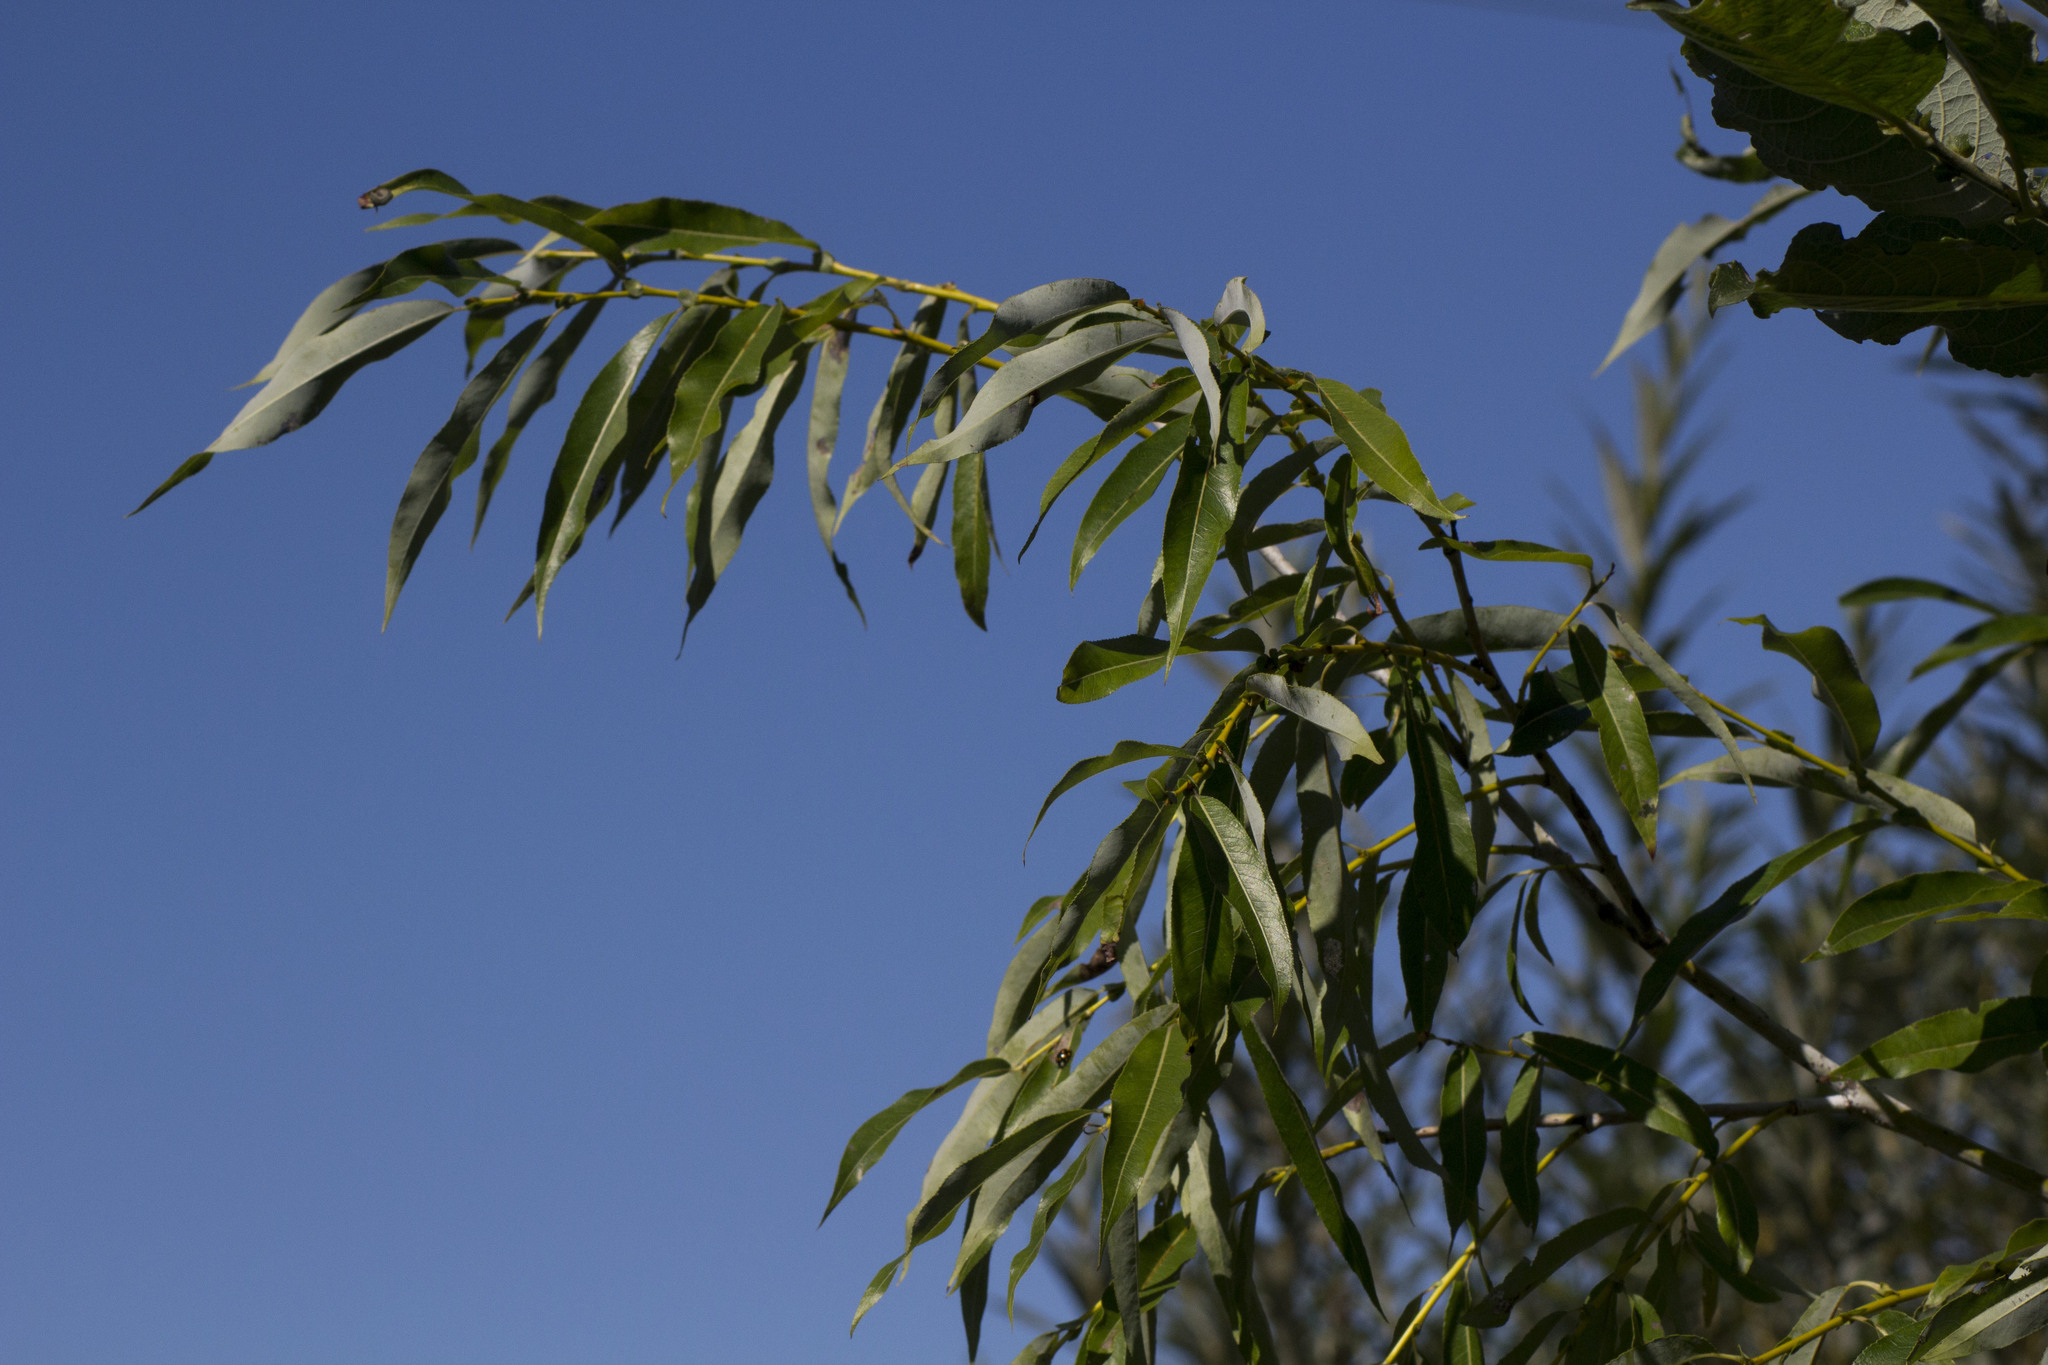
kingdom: Plantae
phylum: Tracheophyta
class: Magnoliopsida
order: Malpighiales
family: Salicaceae
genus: Salix
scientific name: Salix rorida
